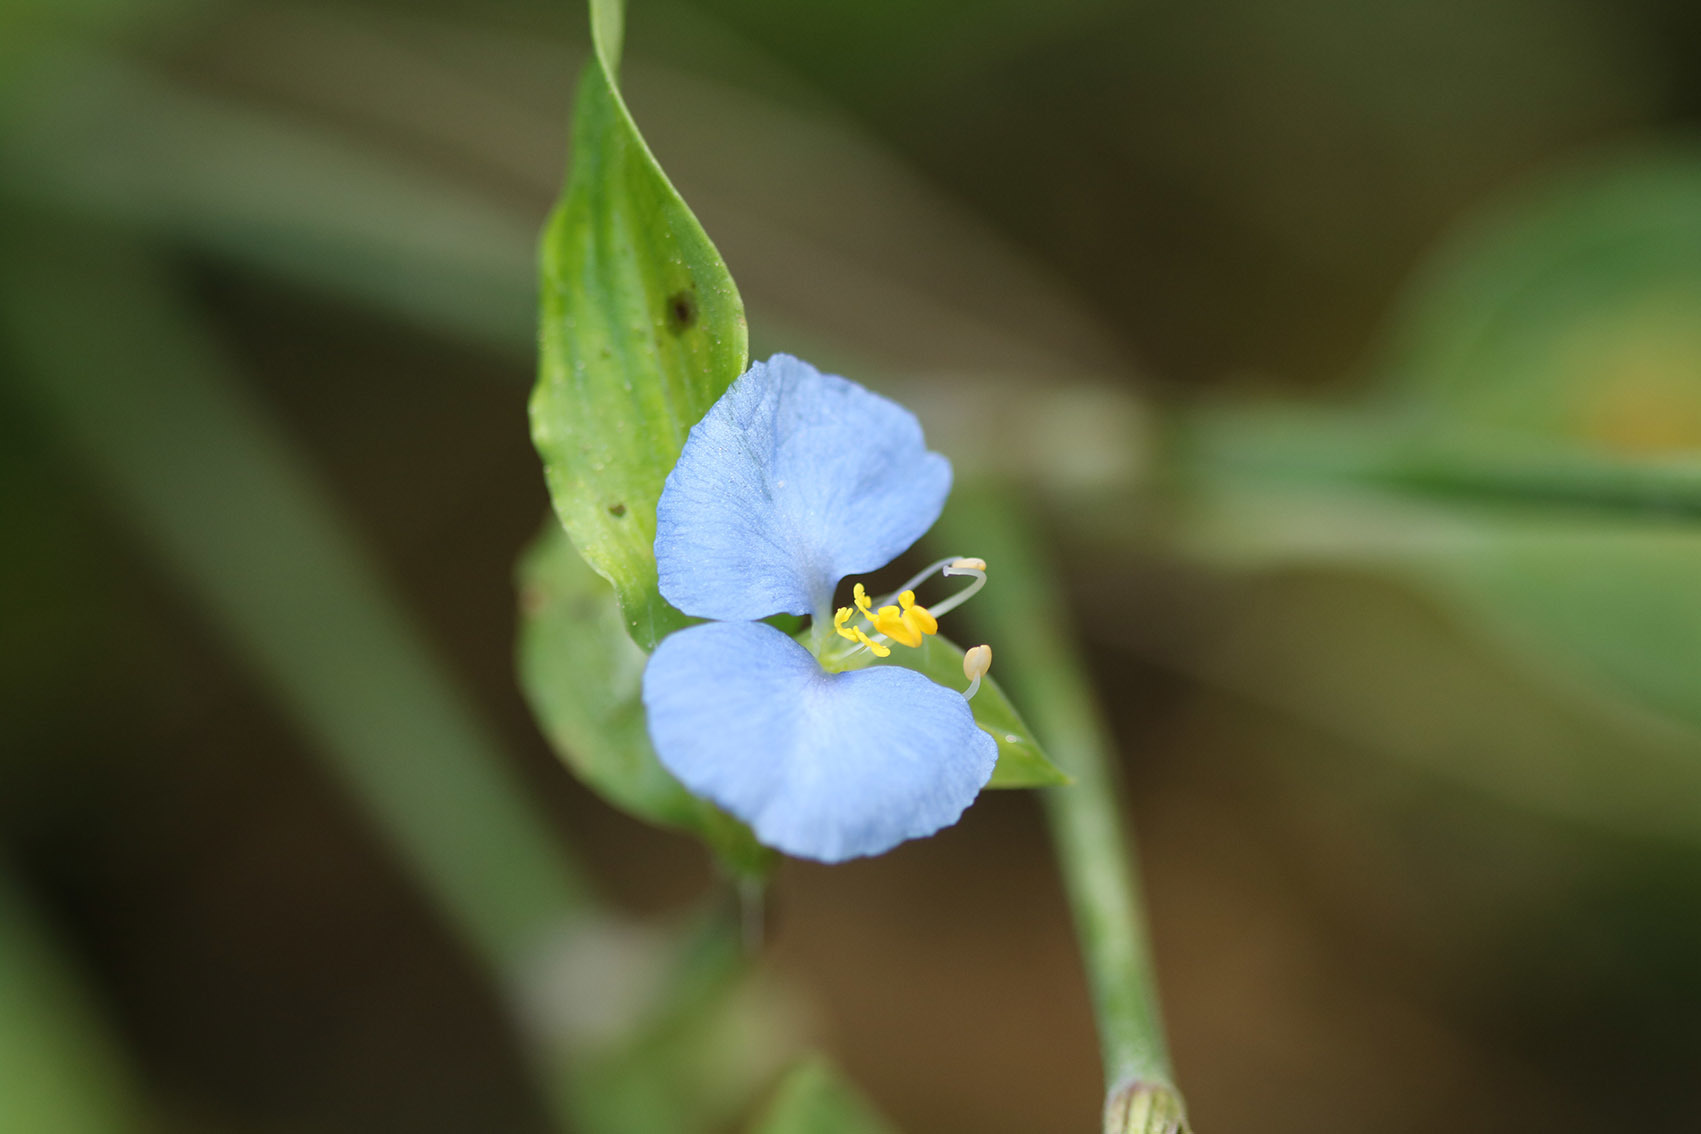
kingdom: Plantae
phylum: Tracheophyta
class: Liliopsida
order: Commelinales
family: Commelinaceae
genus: Commelina
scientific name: Commelina erecta
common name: Blousel blommetjie
